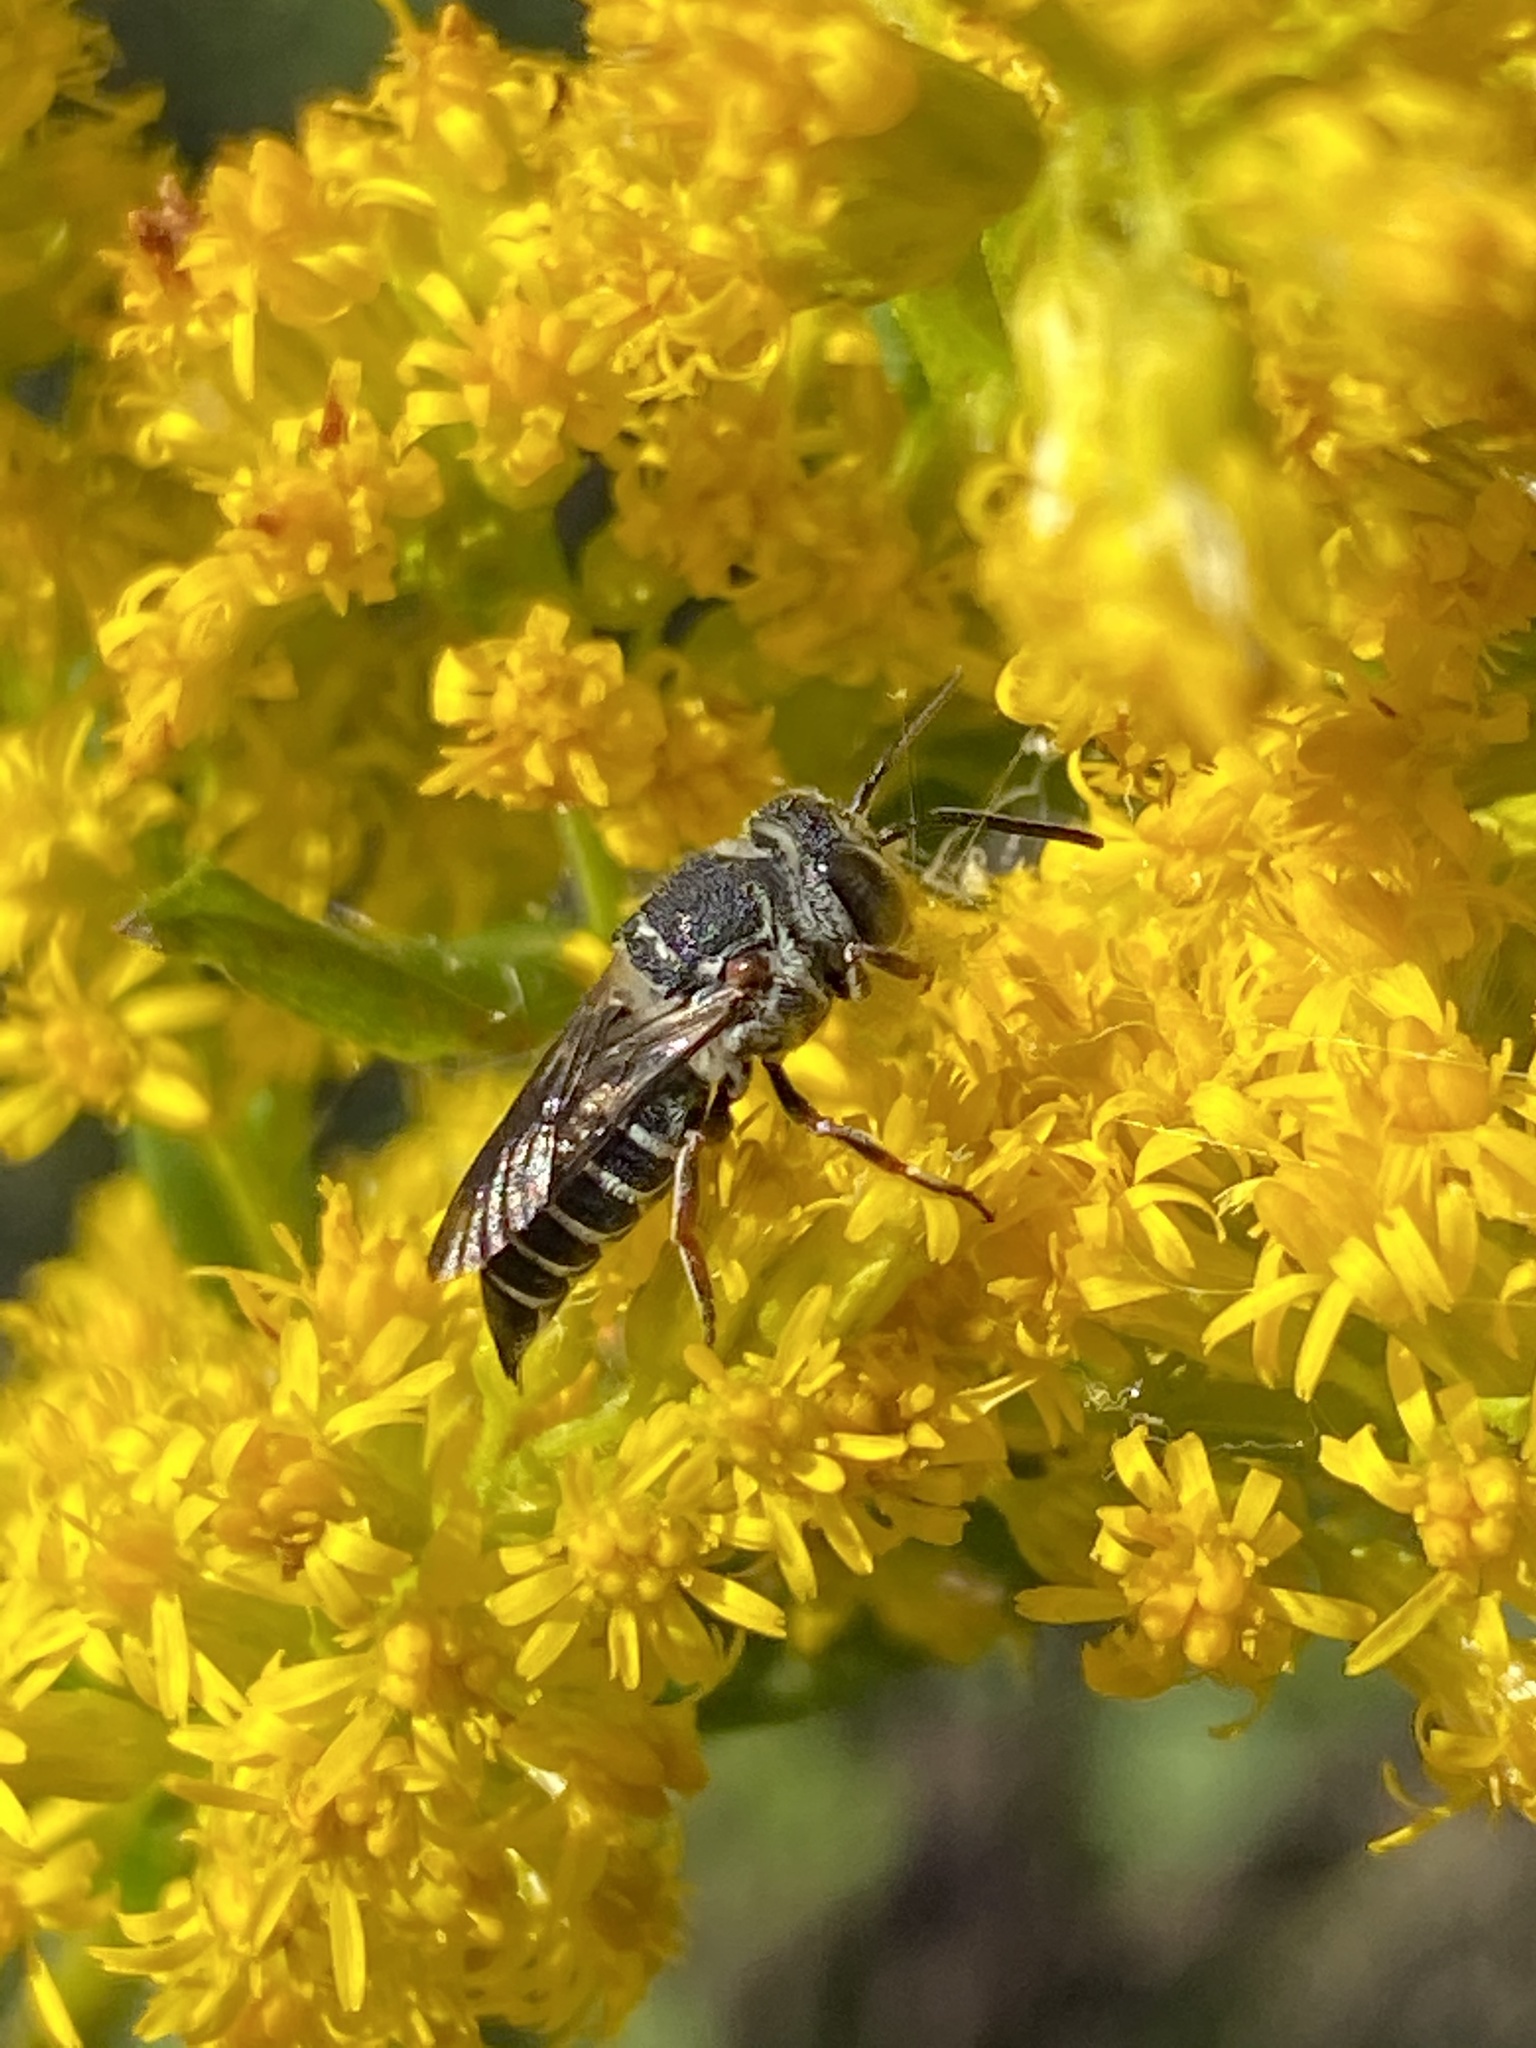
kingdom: Animalia
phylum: Arthropoda
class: Insecta
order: Hymenoptera
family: Megachilidae
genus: Coelioxys
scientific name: Coelioxys sayi
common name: Say's cuckoo leaf-cutter bee
